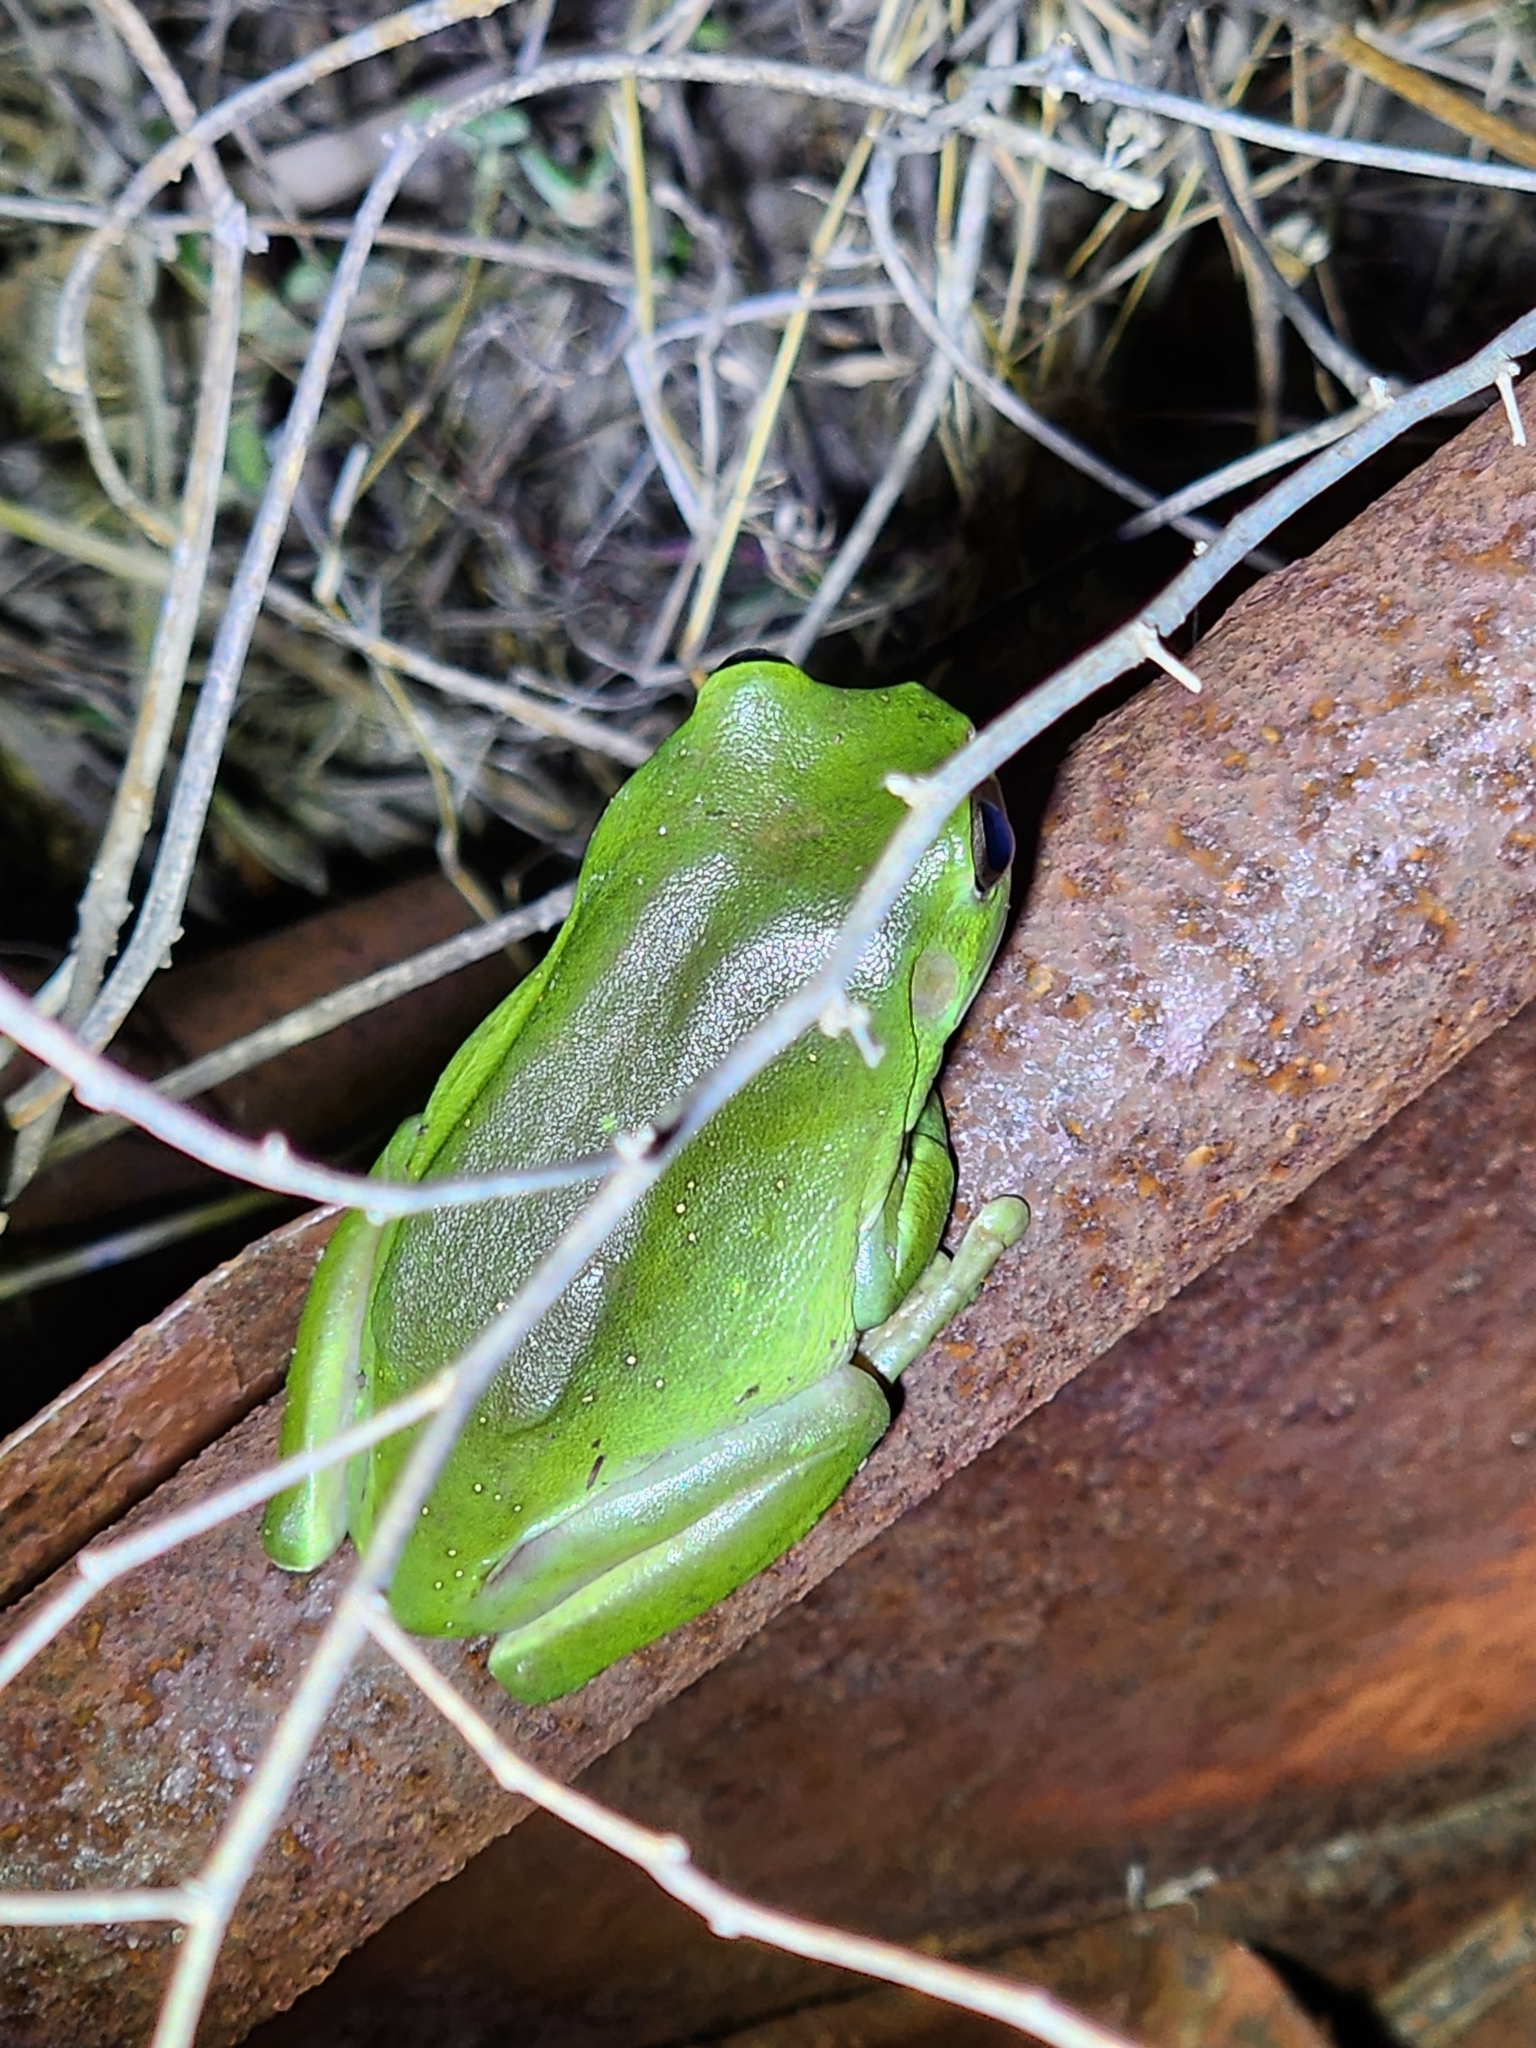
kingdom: Animalia
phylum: Chordata
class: Amphibia
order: Anura
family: Pelodryadidae
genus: Ranoidea
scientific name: Ranoidea caerulea
